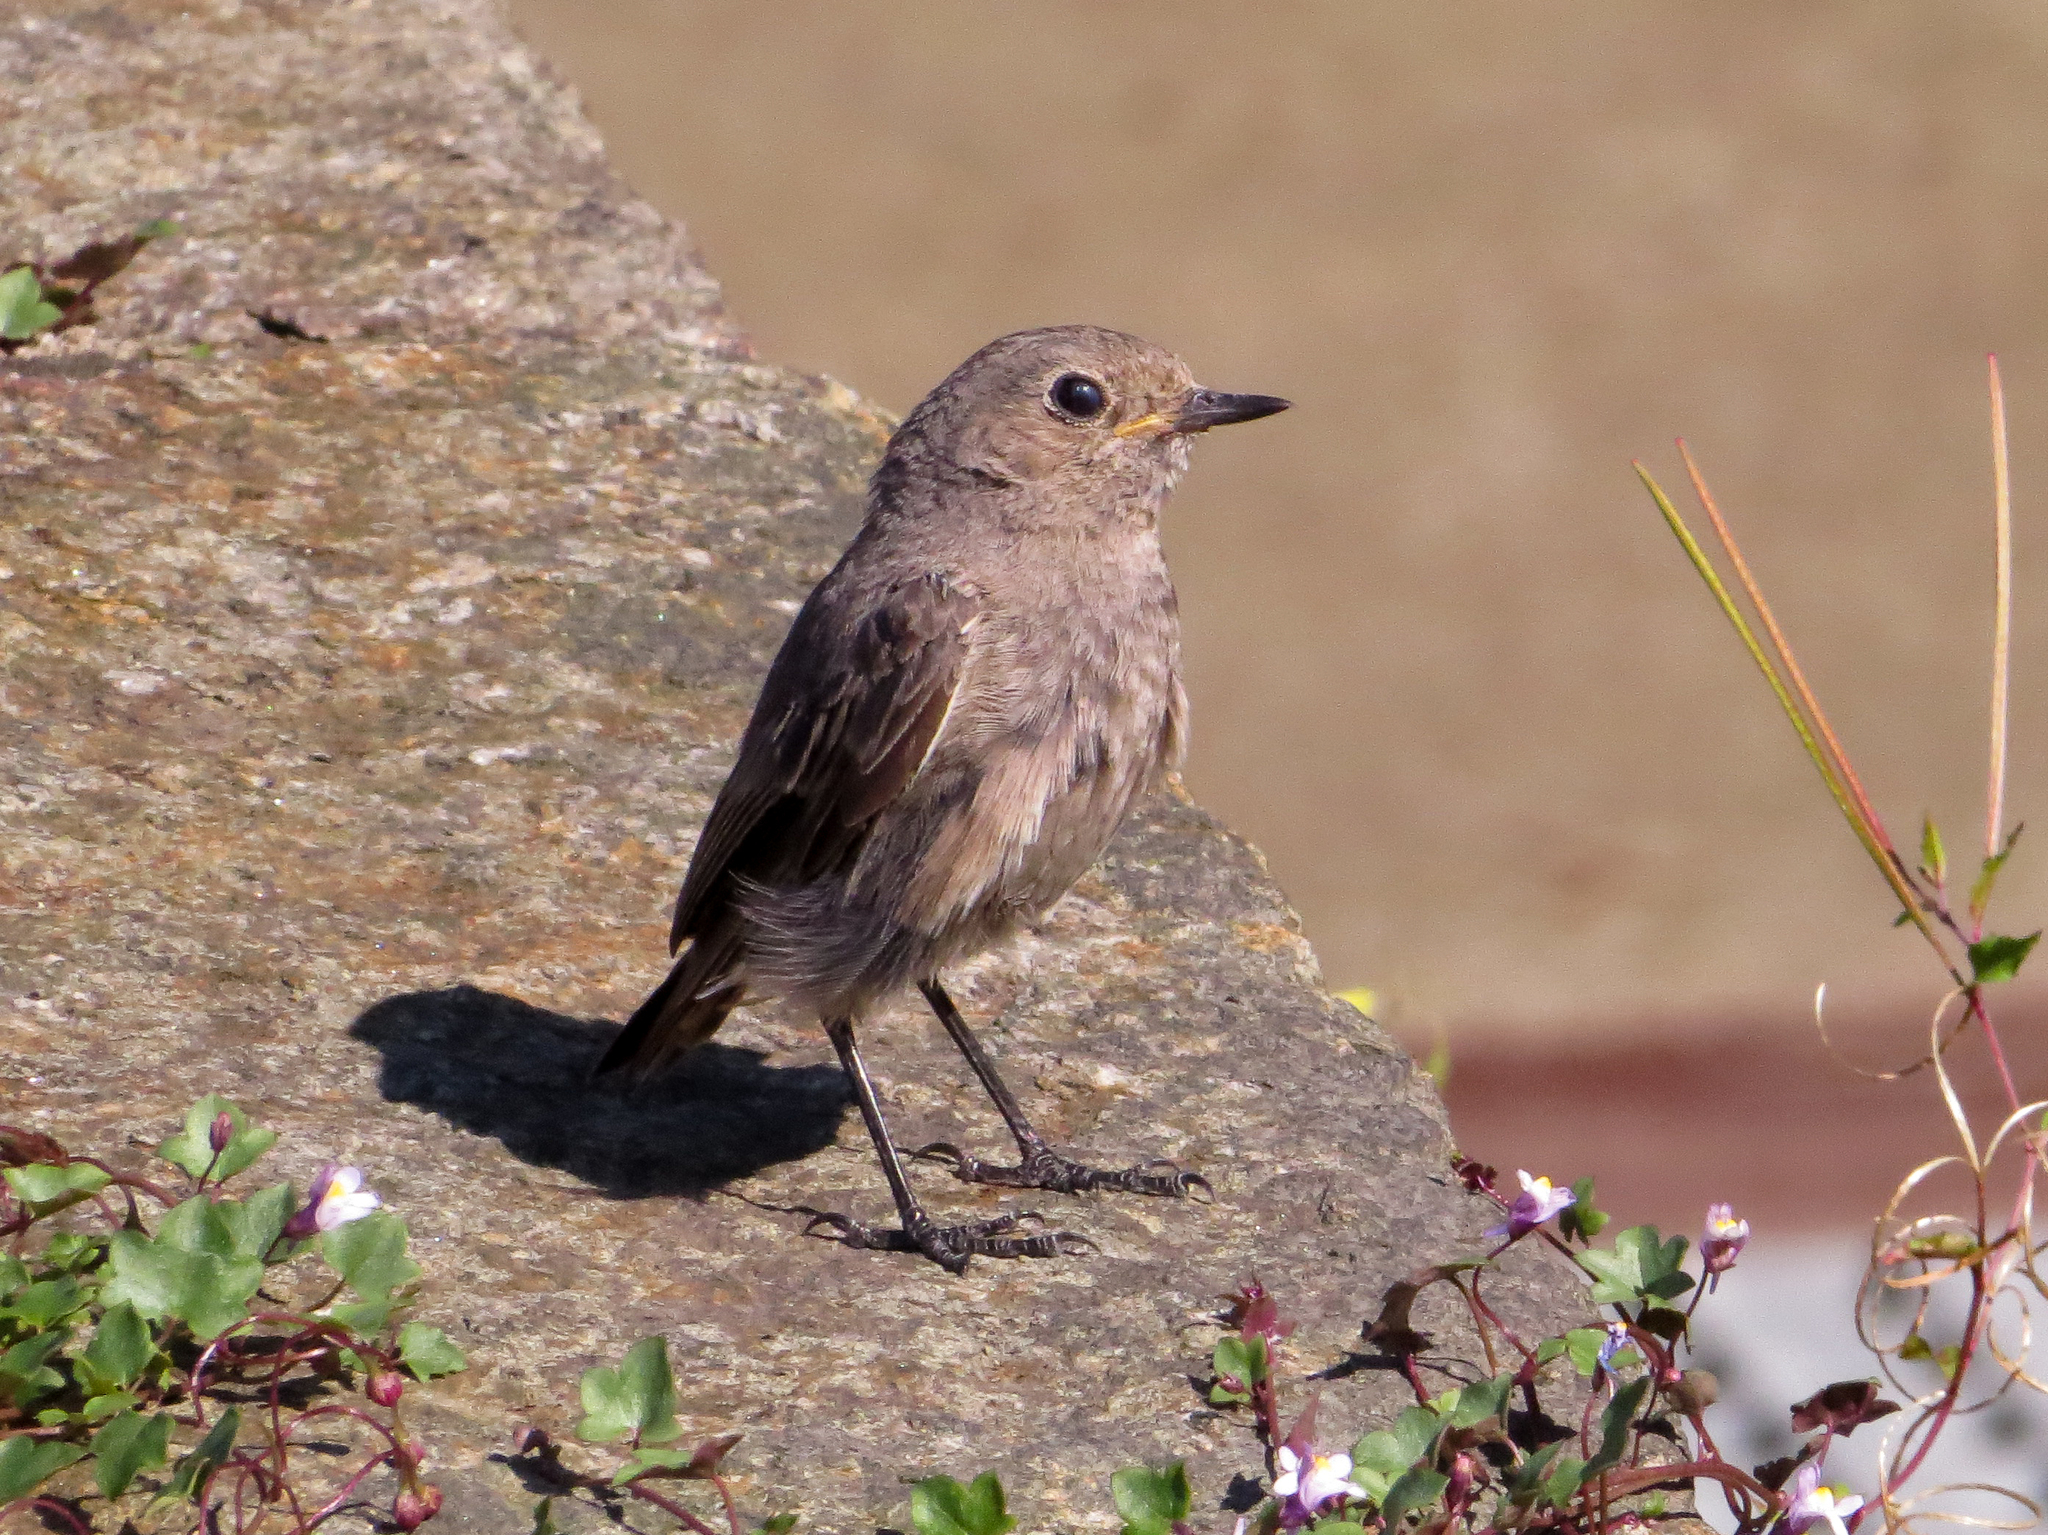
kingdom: Animalia
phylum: Chordata
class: Aves
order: Passeriformes
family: Muscicapidae
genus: Phoenicurus
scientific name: Phoenicurus ochruros
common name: Black redstart
